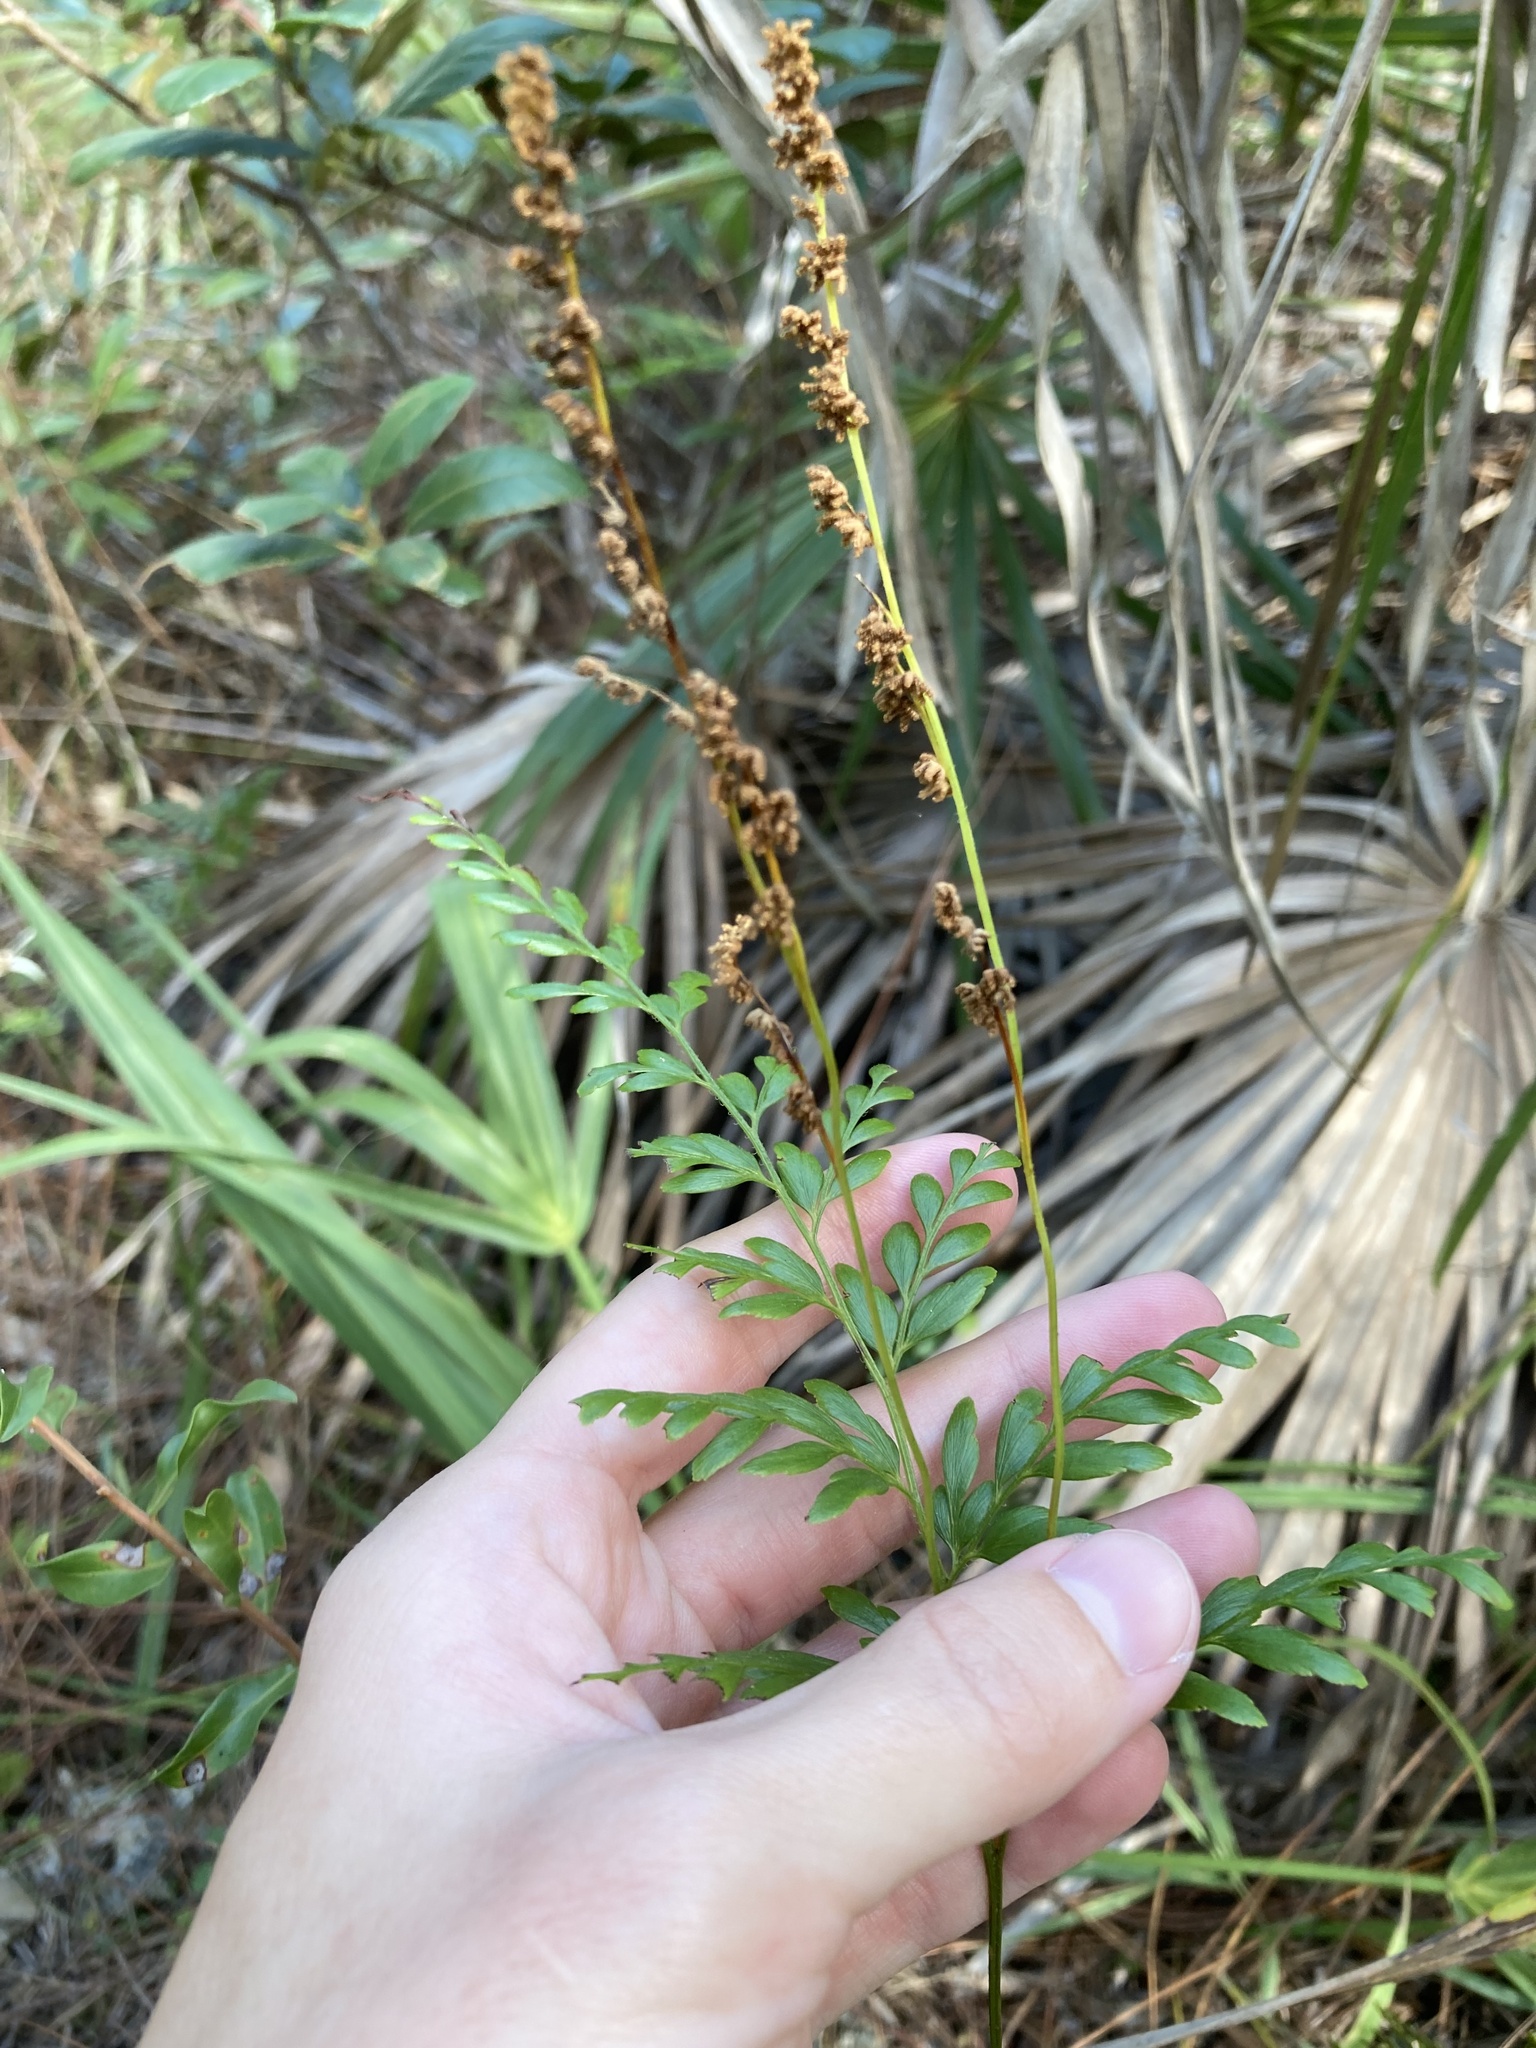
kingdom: Plantae
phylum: Tracheophyta
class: Polypodiopsida
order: Schizaeales
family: Anemiaceae
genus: Anemia
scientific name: Anemia adiantifolia
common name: Pine fern
